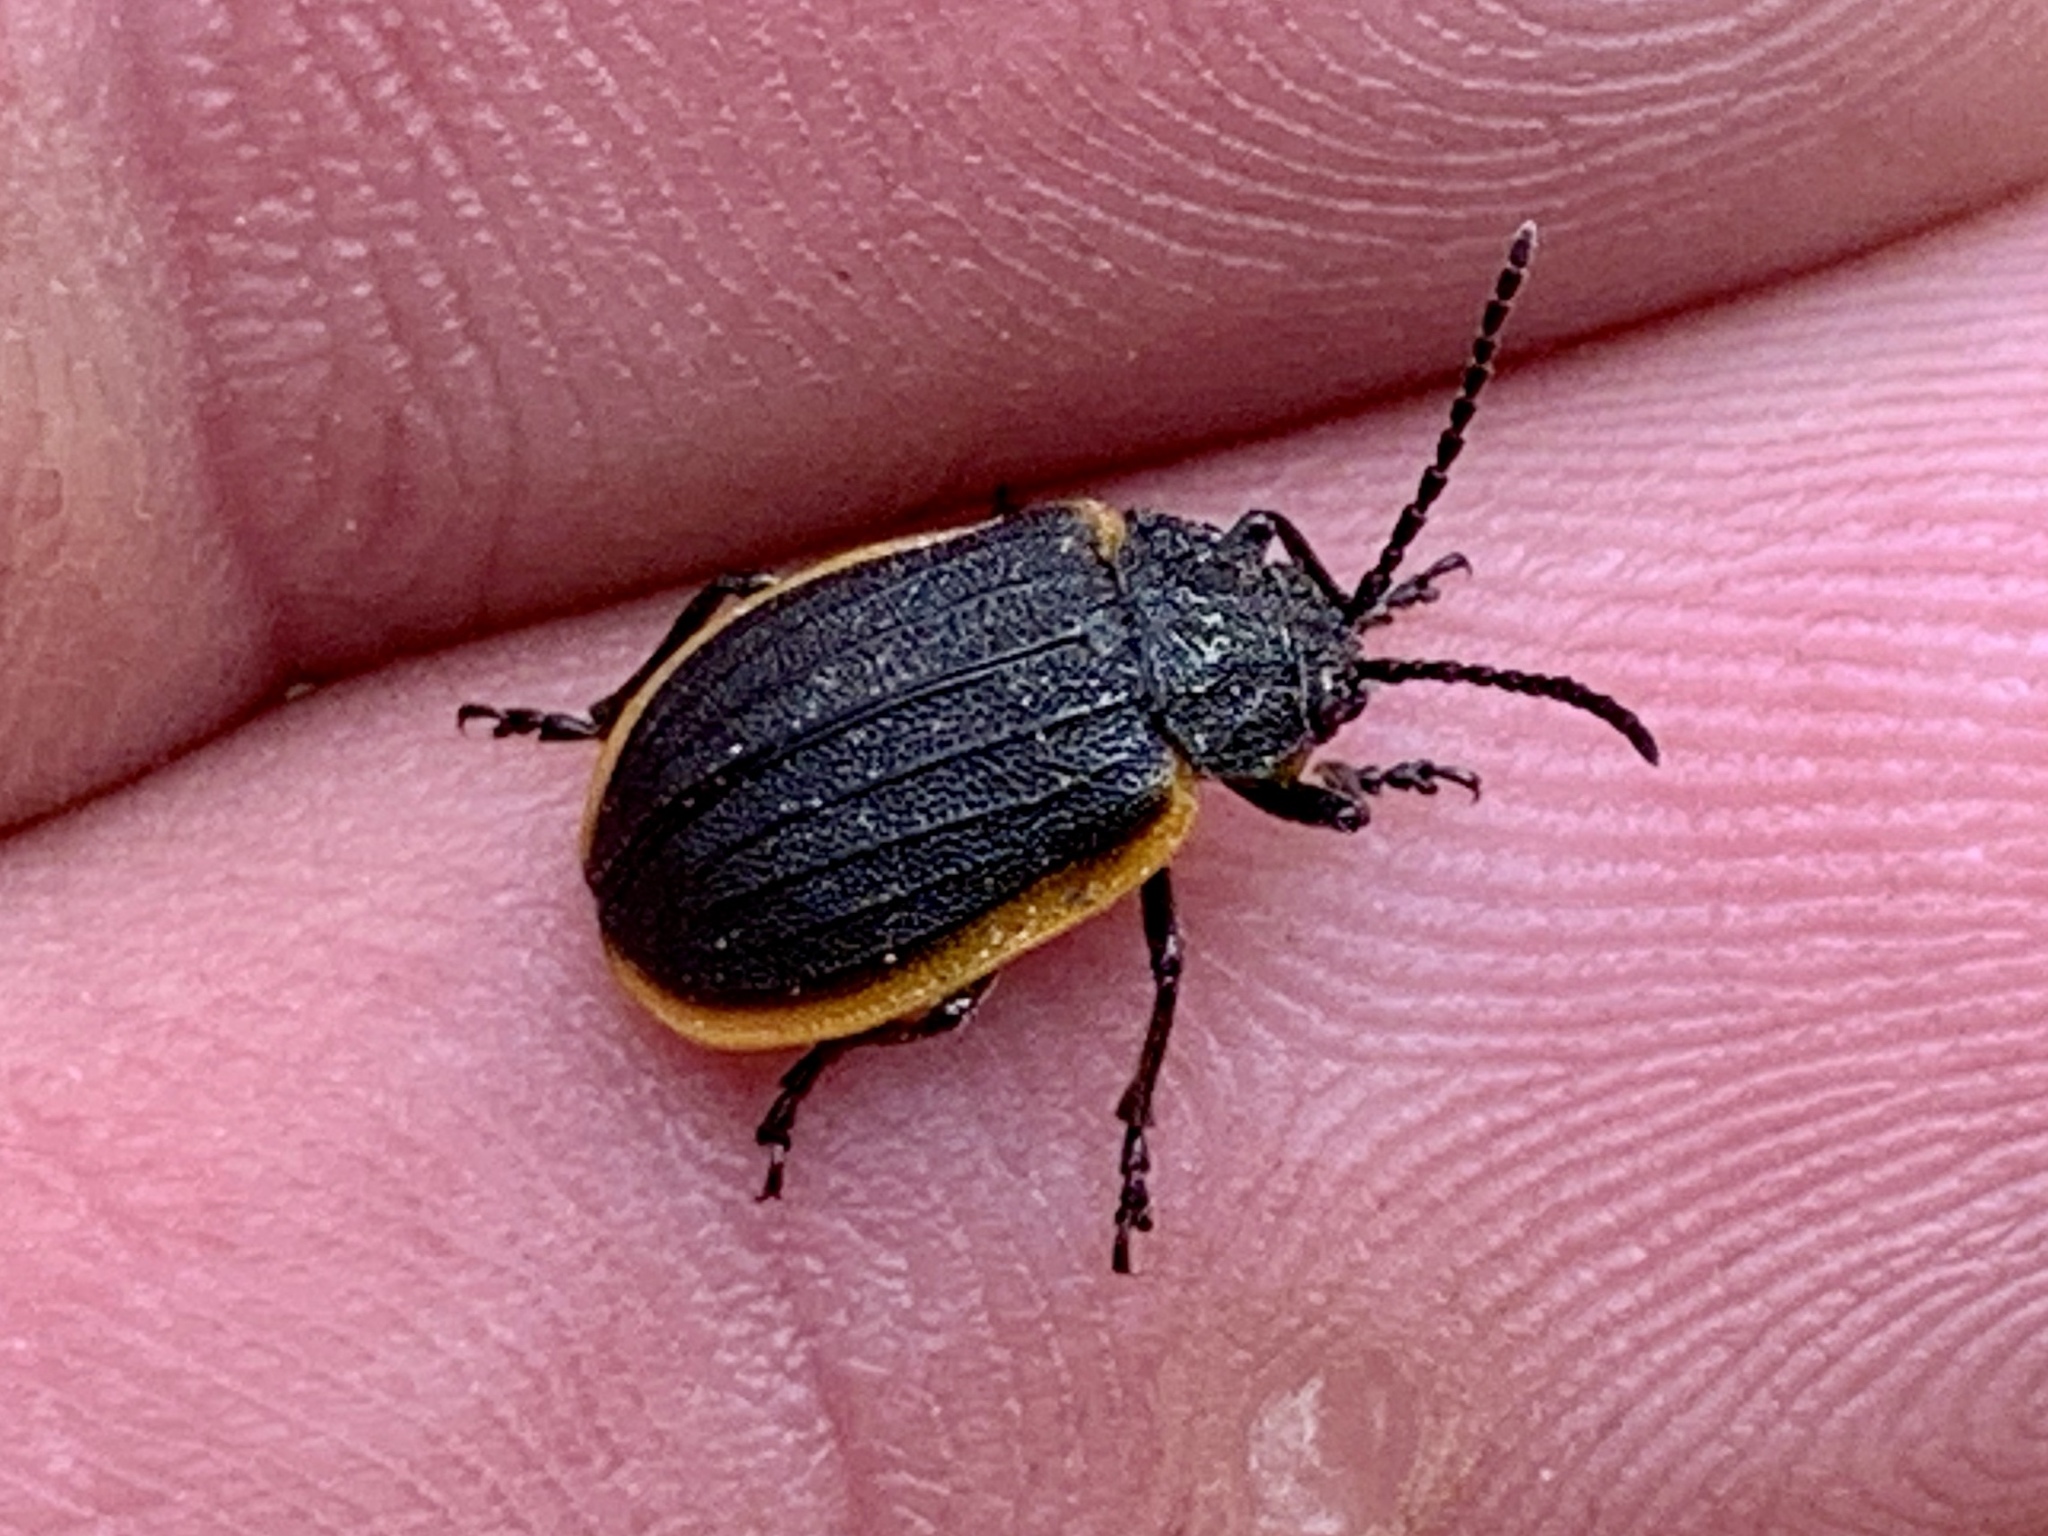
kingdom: Animalia
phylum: Arthropoda
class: Insecta
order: Coleoptera
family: Chrysomelidae
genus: Galeruca
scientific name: Galeruca rudis
